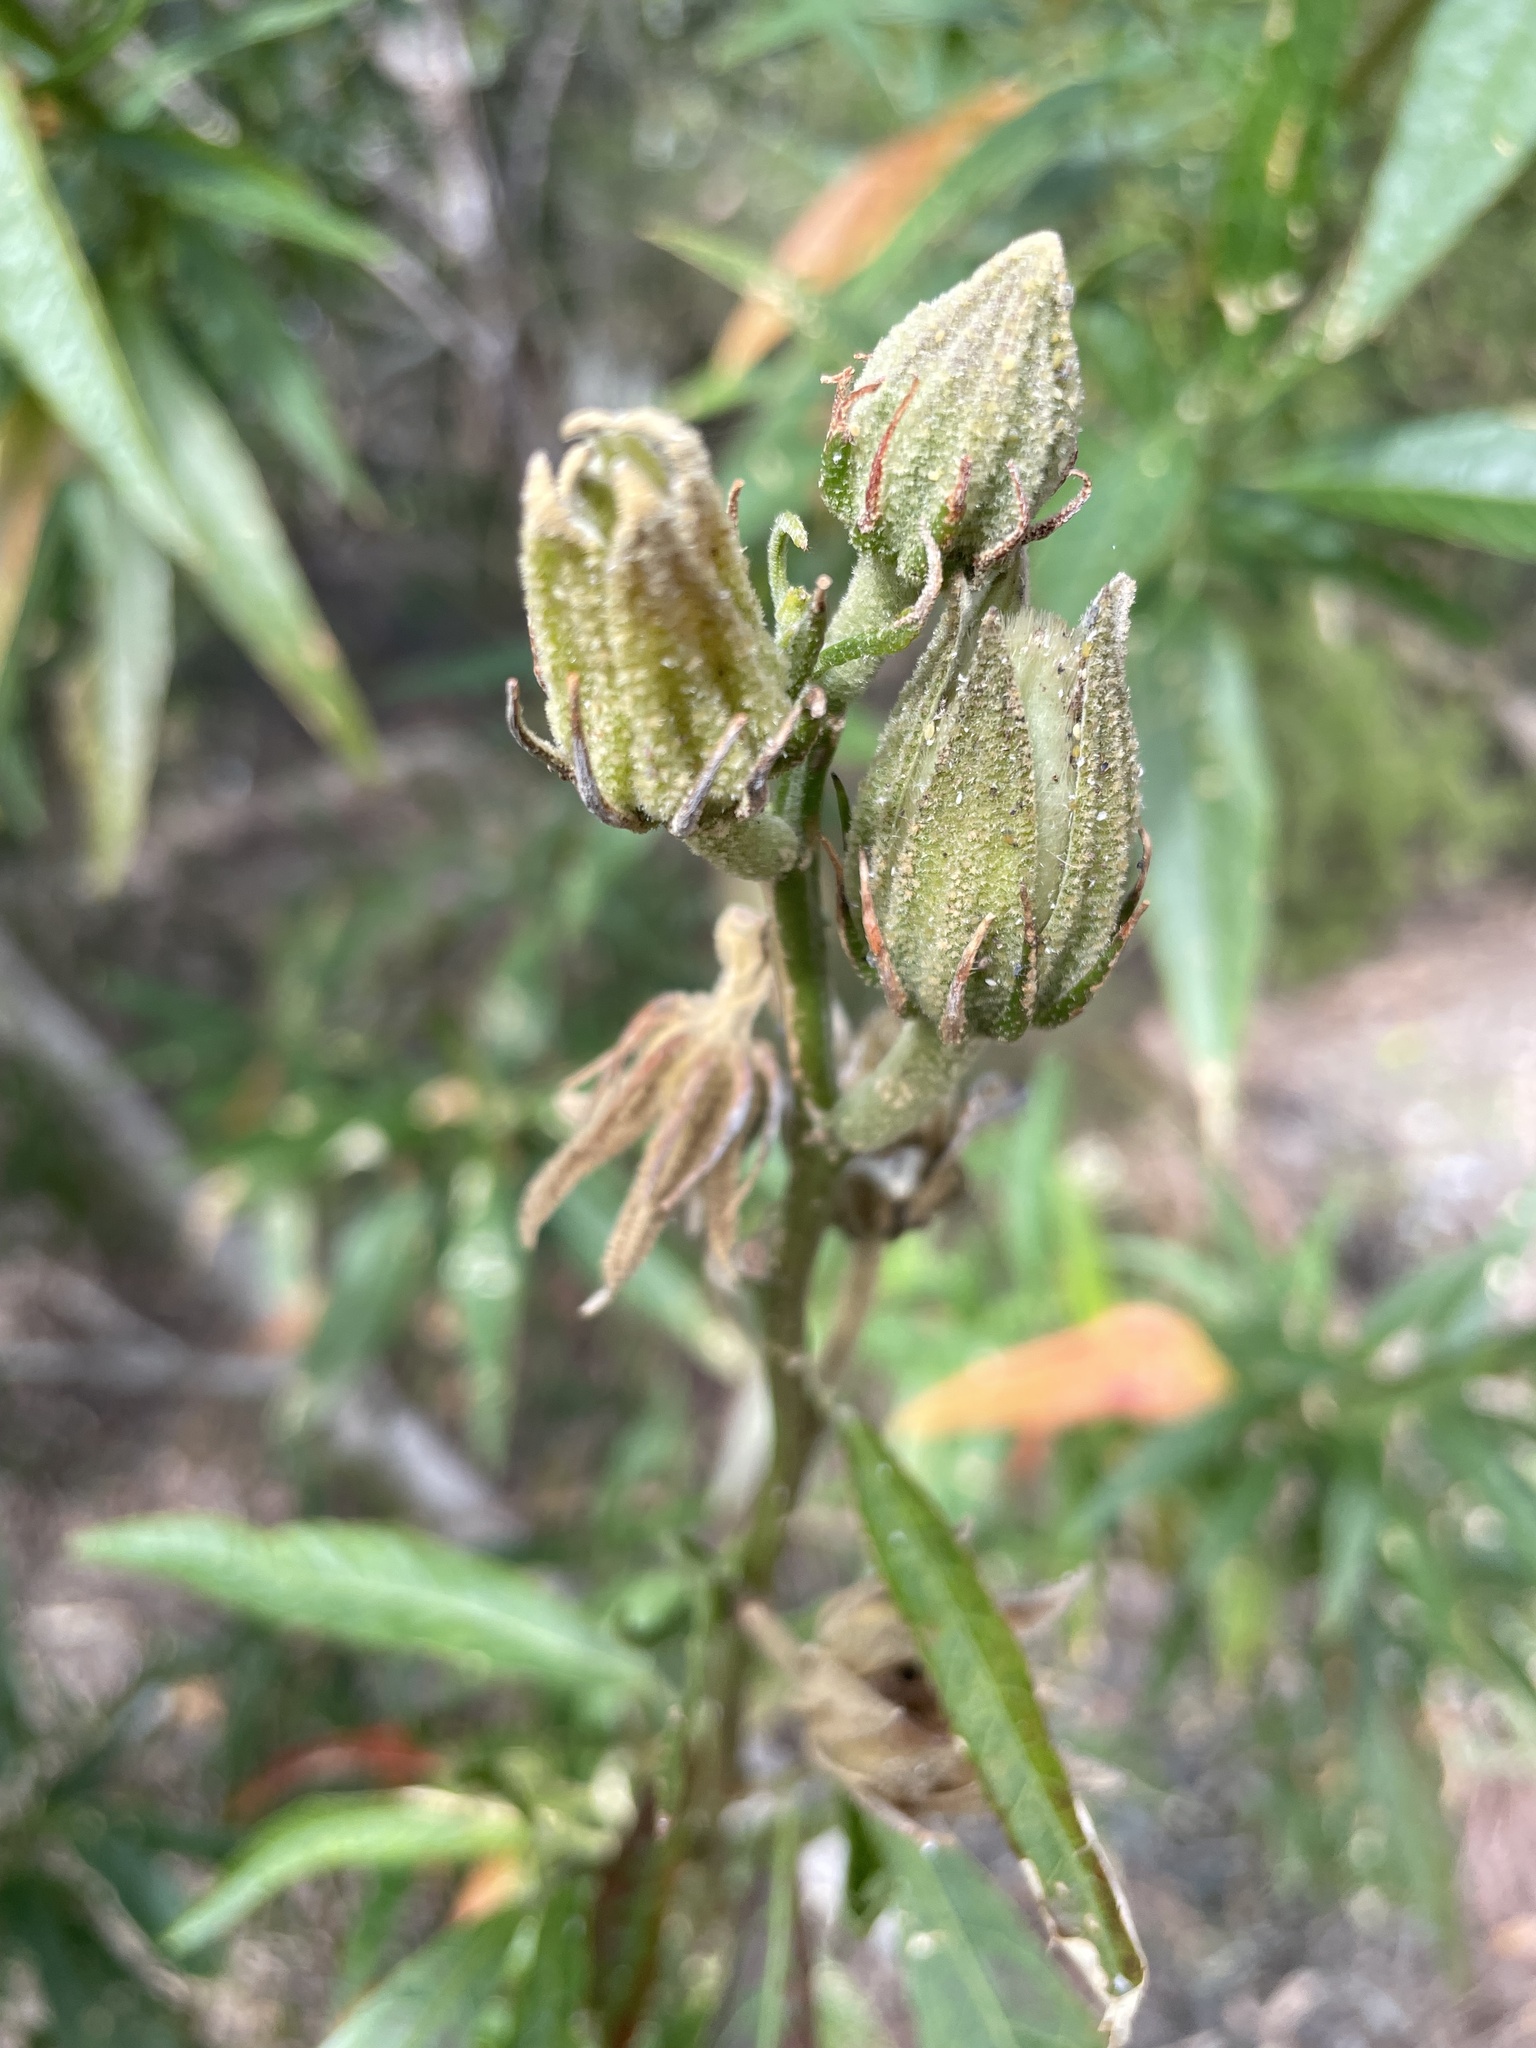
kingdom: Plantae
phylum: Tracheophyta
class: Magnoliopsida
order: Malvales
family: Malvaceae
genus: Hibiscus
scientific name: Hibiscus heterophyllus
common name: Queensland-sorrel
